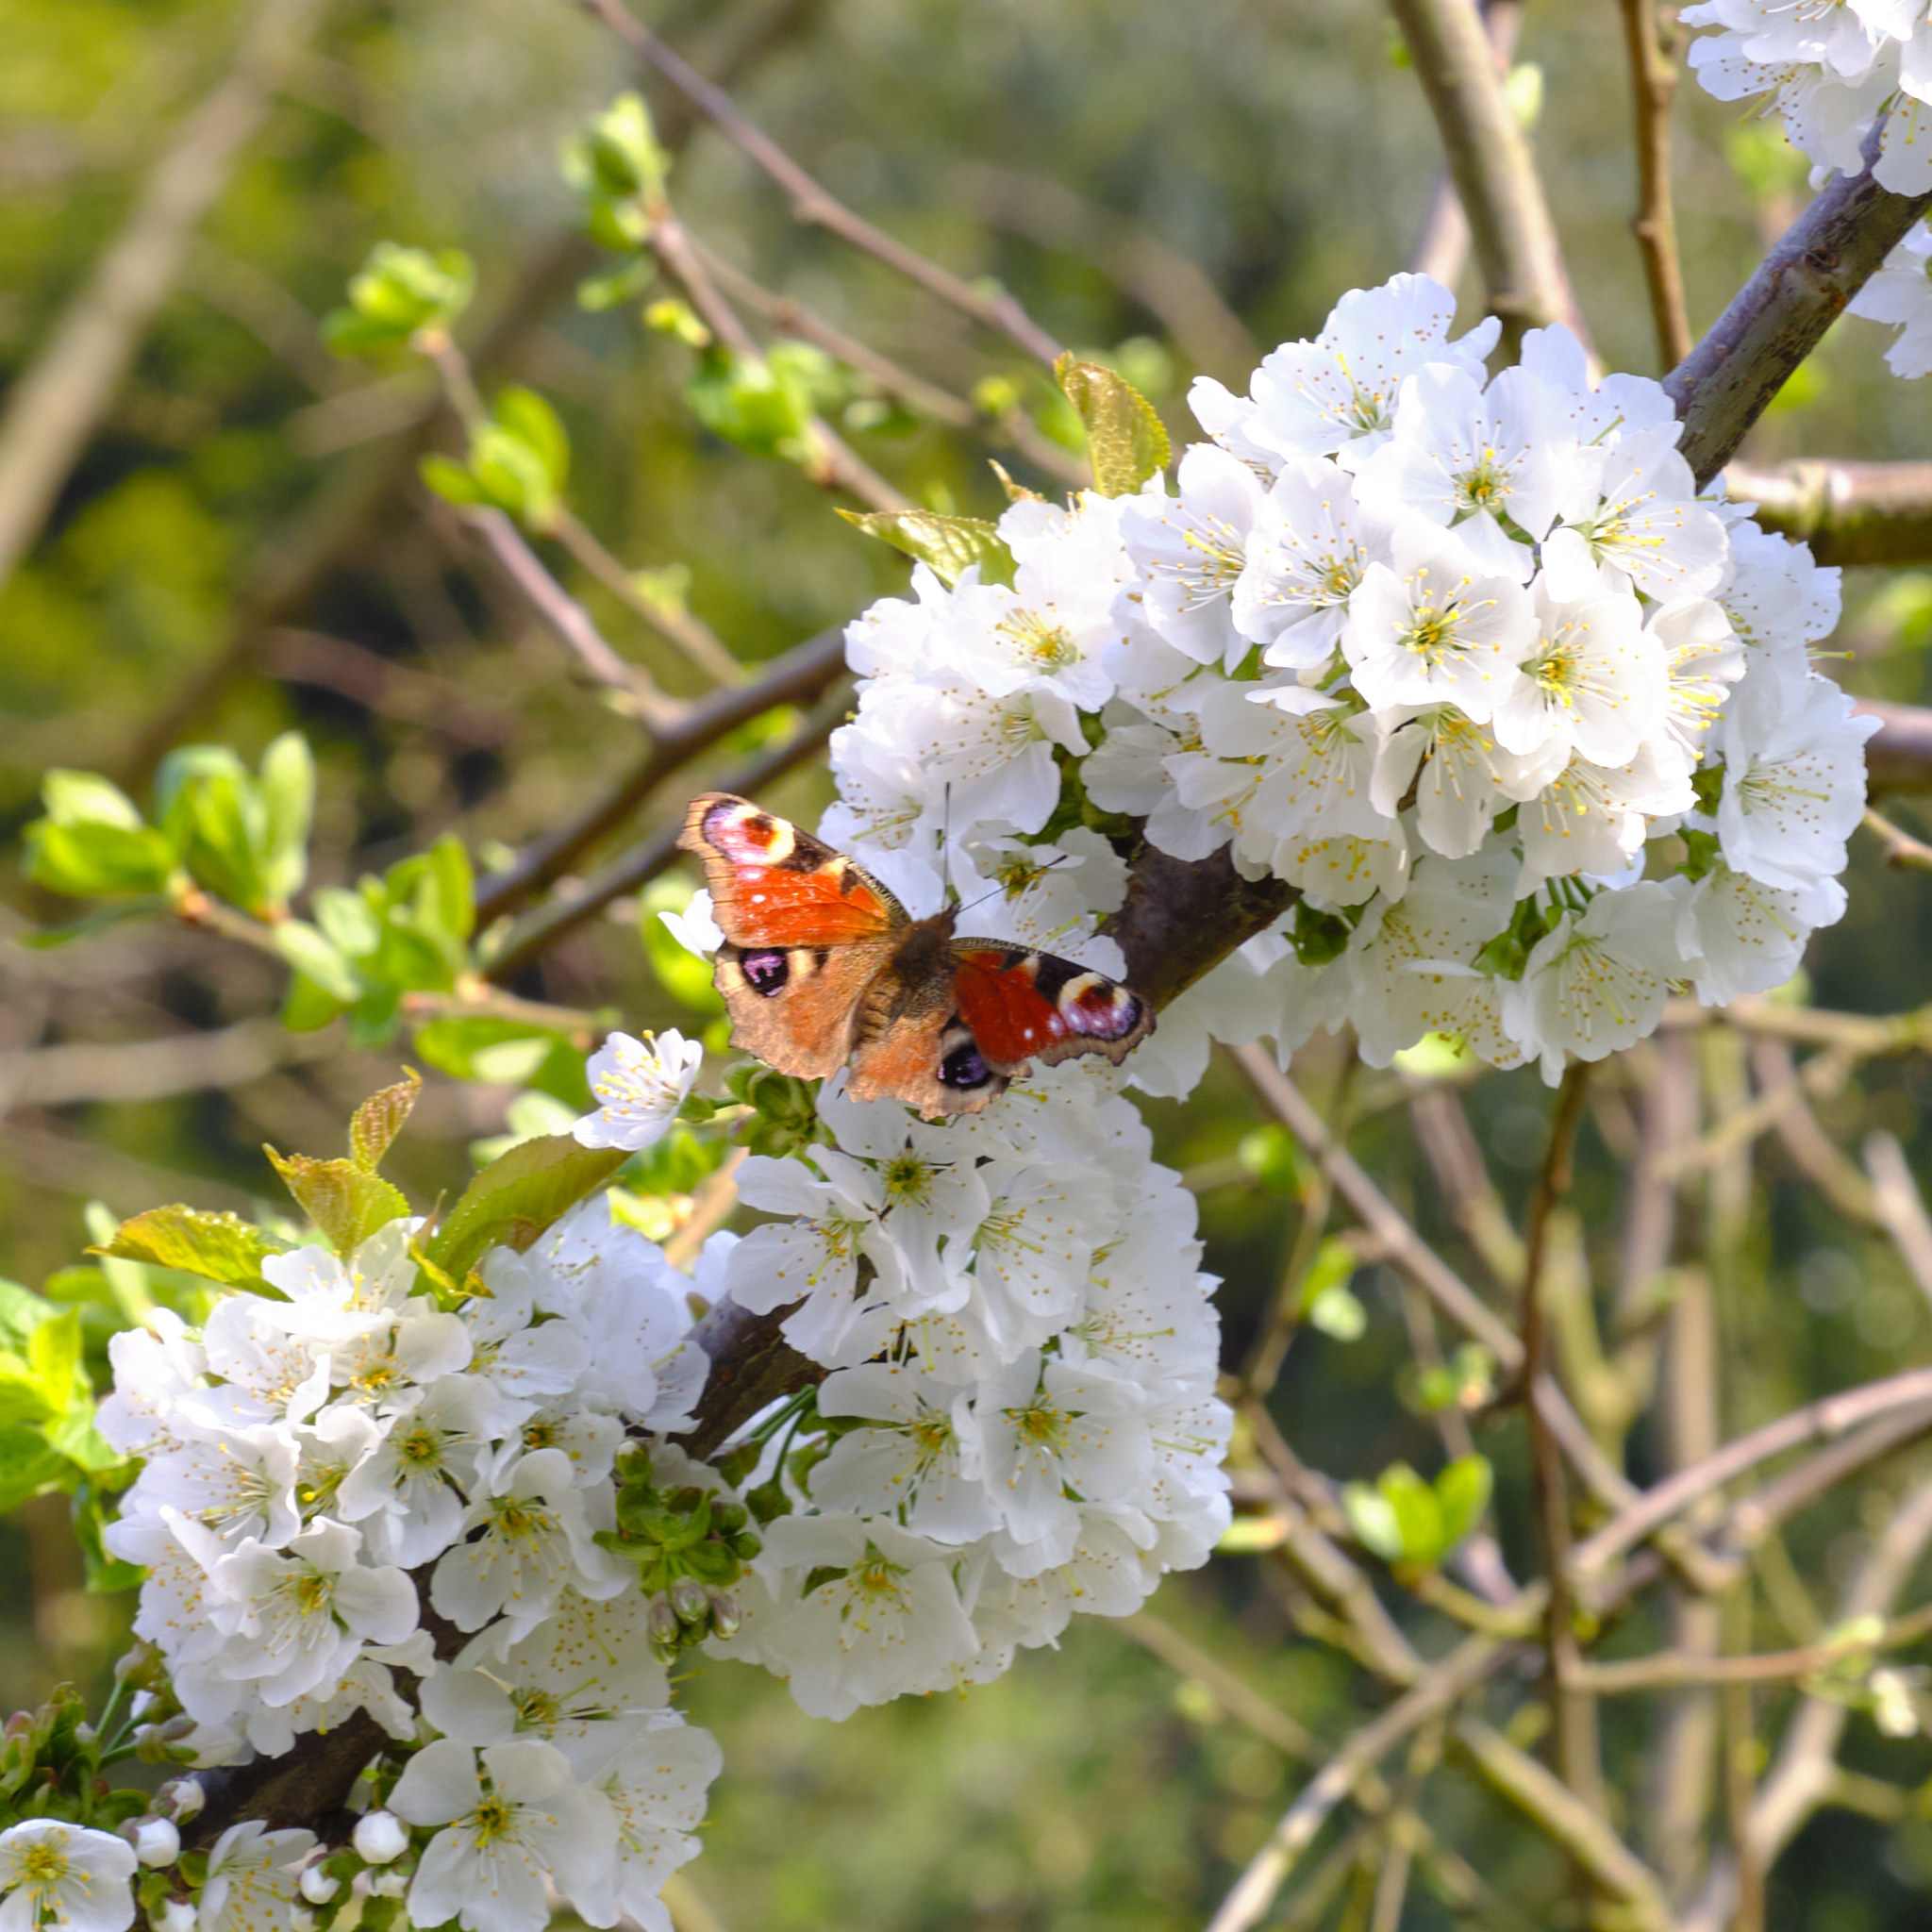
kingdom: Animalia
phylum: Arthropoda
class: Insecta
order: Lepidoptera
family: Nymphalidae
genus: Aglais
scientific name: Aglais io
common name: Peacock
